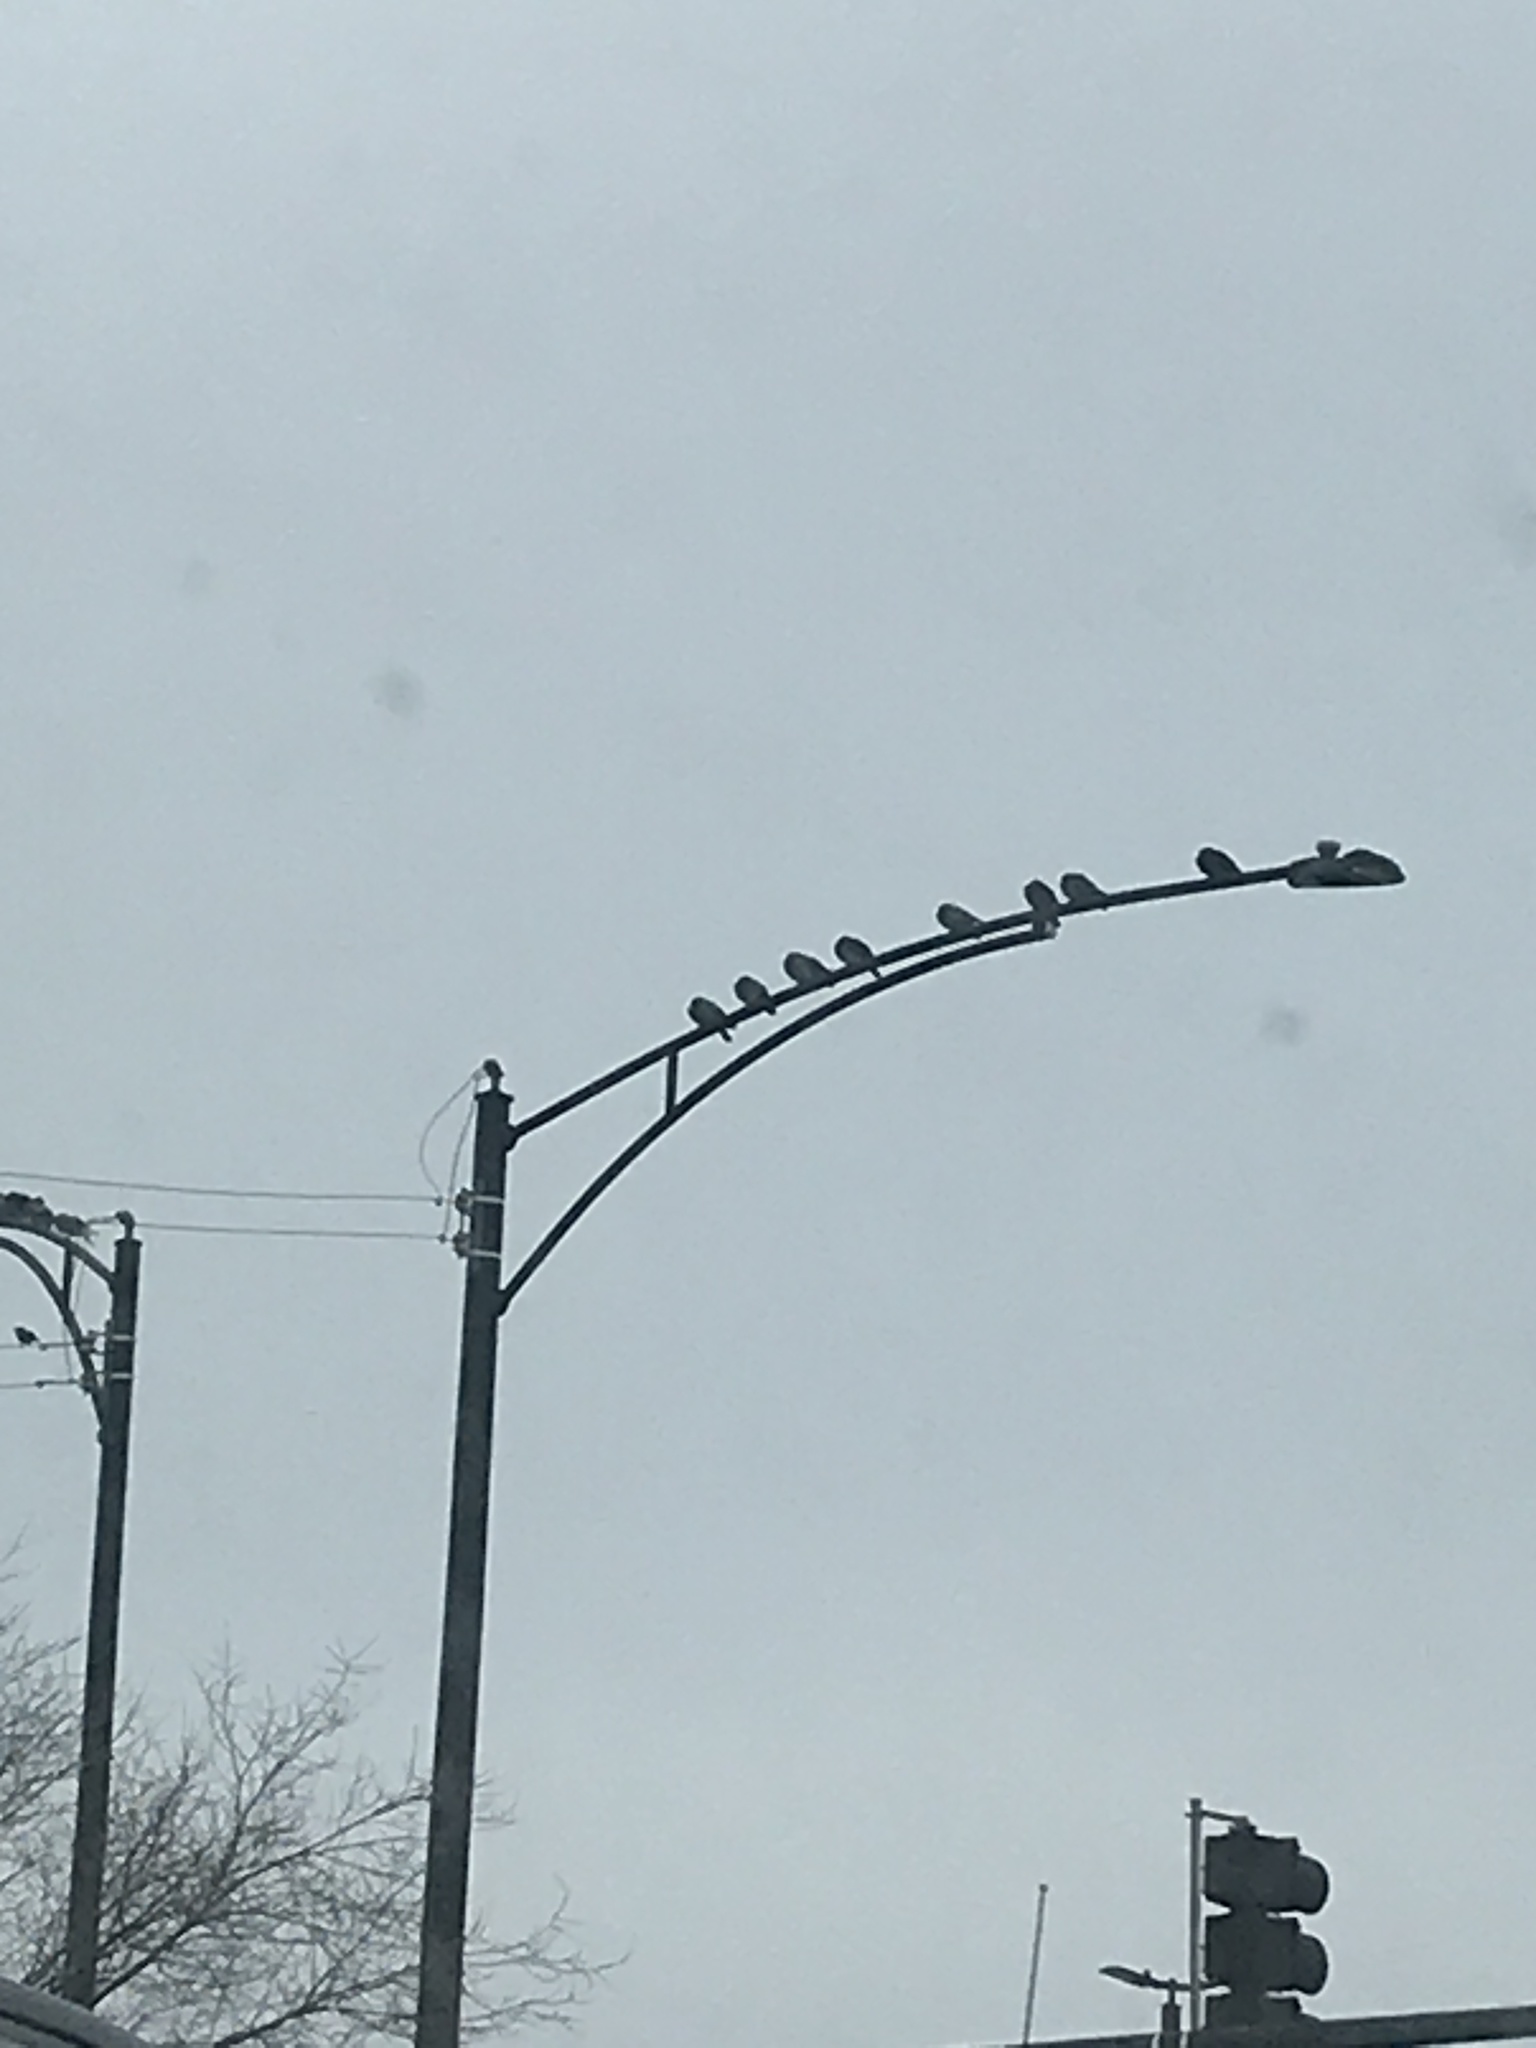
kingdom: Animalia
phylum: Chordata
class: Aves
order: Columbiformes
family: Columbidae
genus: Columba
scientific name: Columba livia
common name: Rock pigeon
